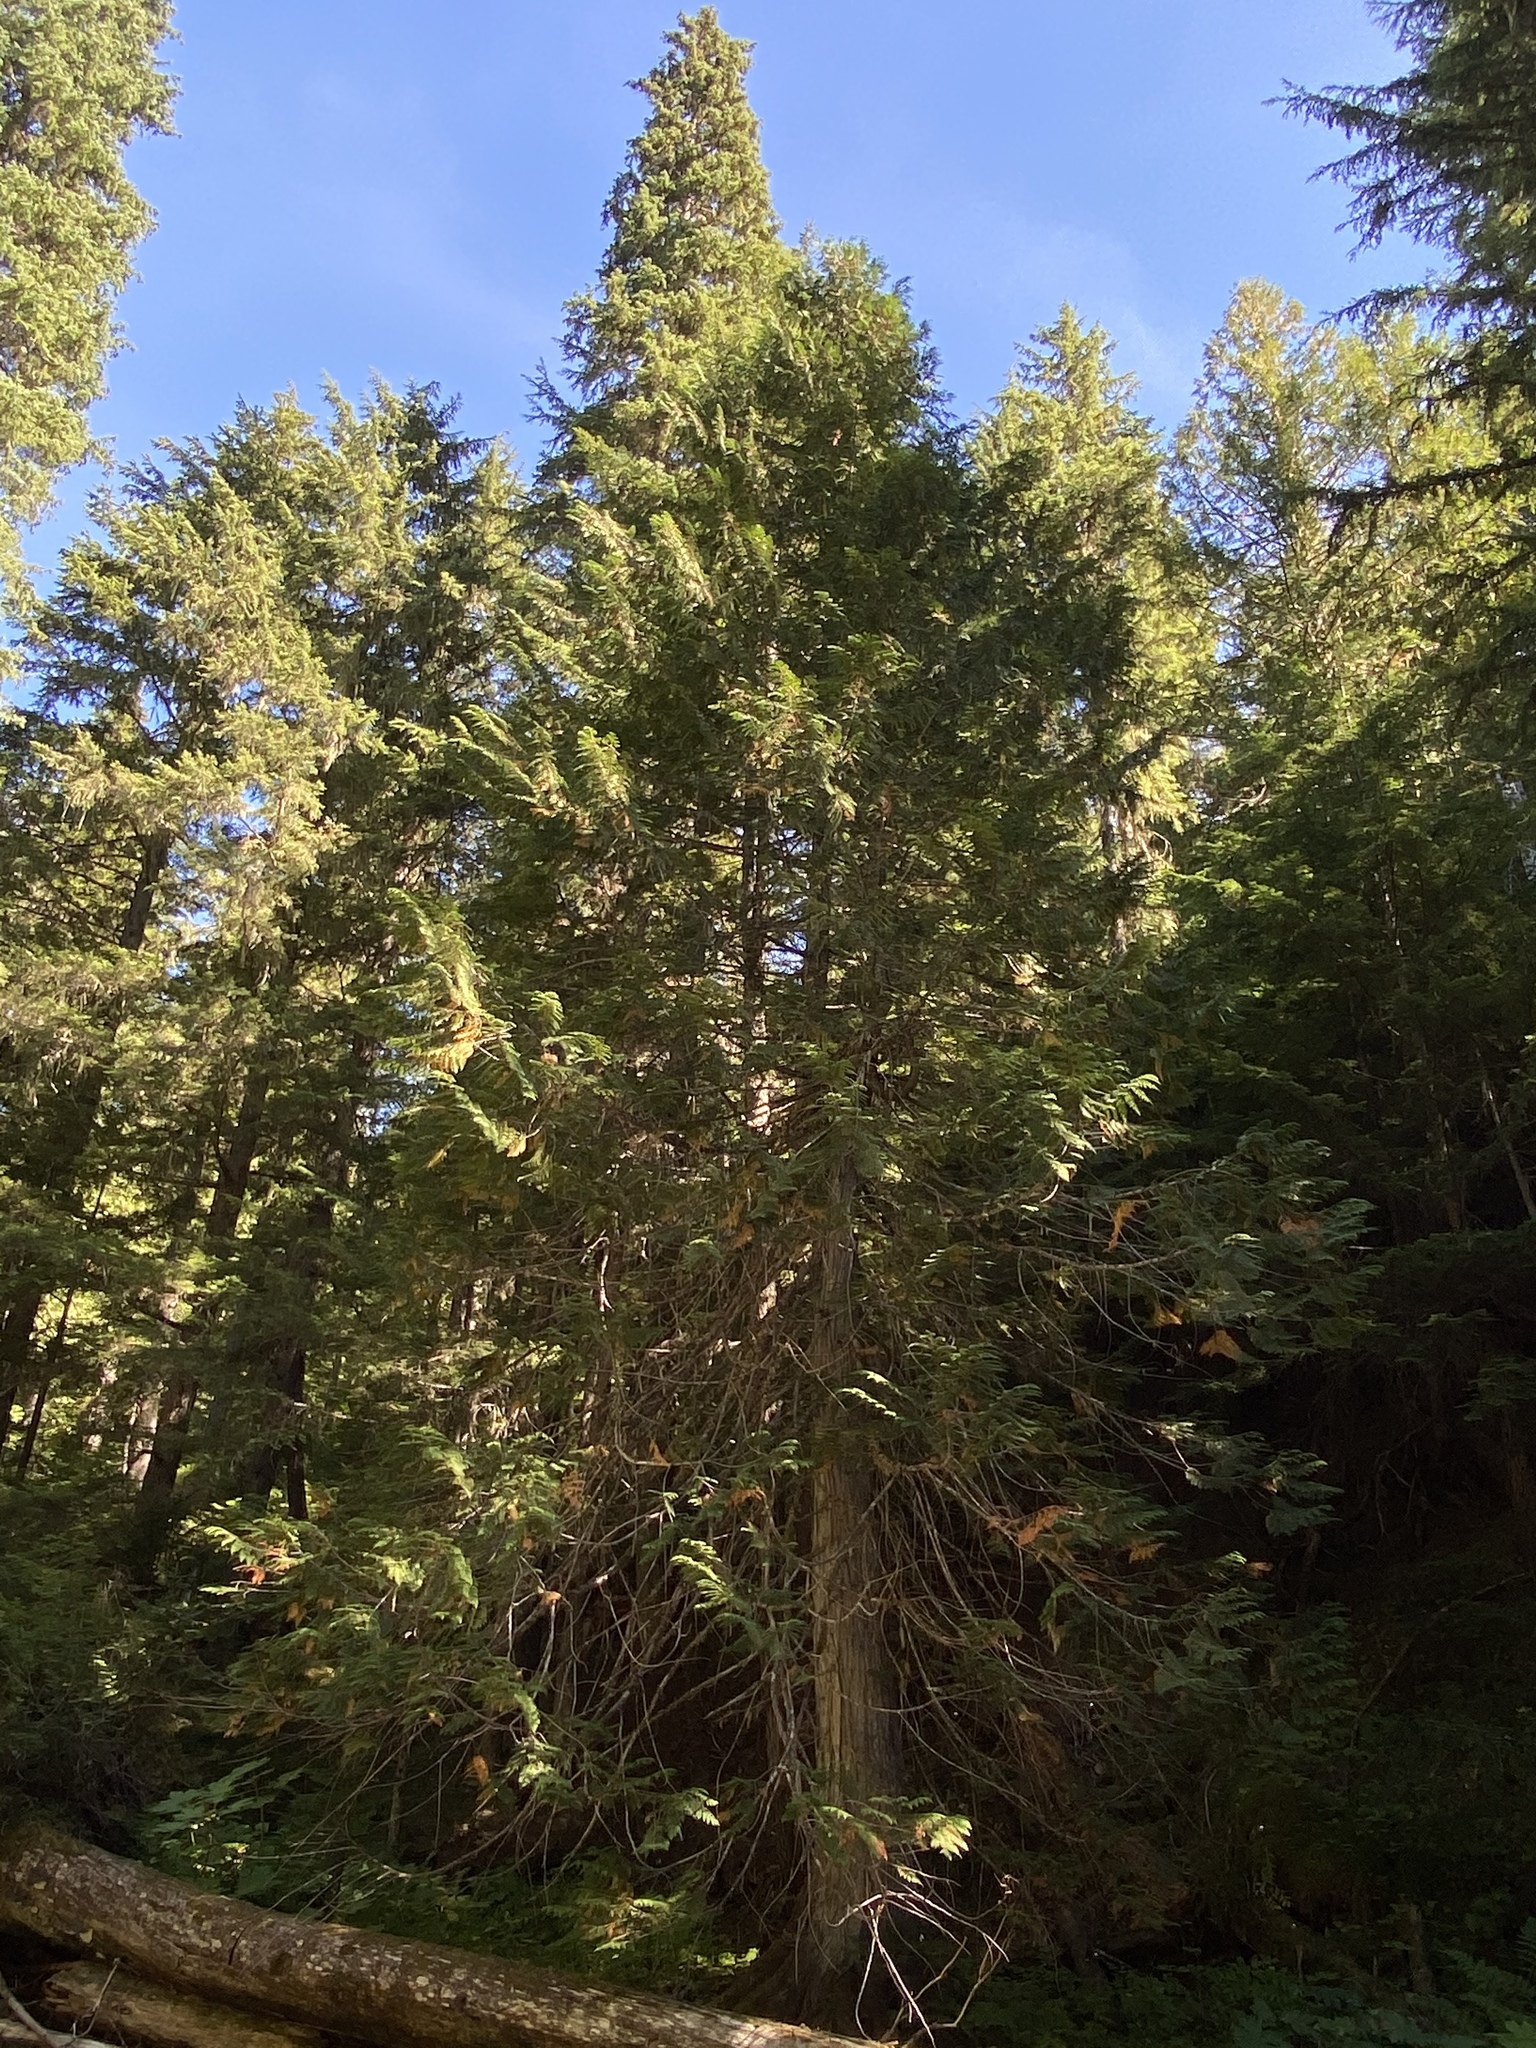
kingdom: Plantae
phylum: Tracheophyta
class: Pinopsida
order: Pinales
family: Cupressaceae
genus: Thuja
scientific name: Thuja plicata
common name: Western red-cedar
